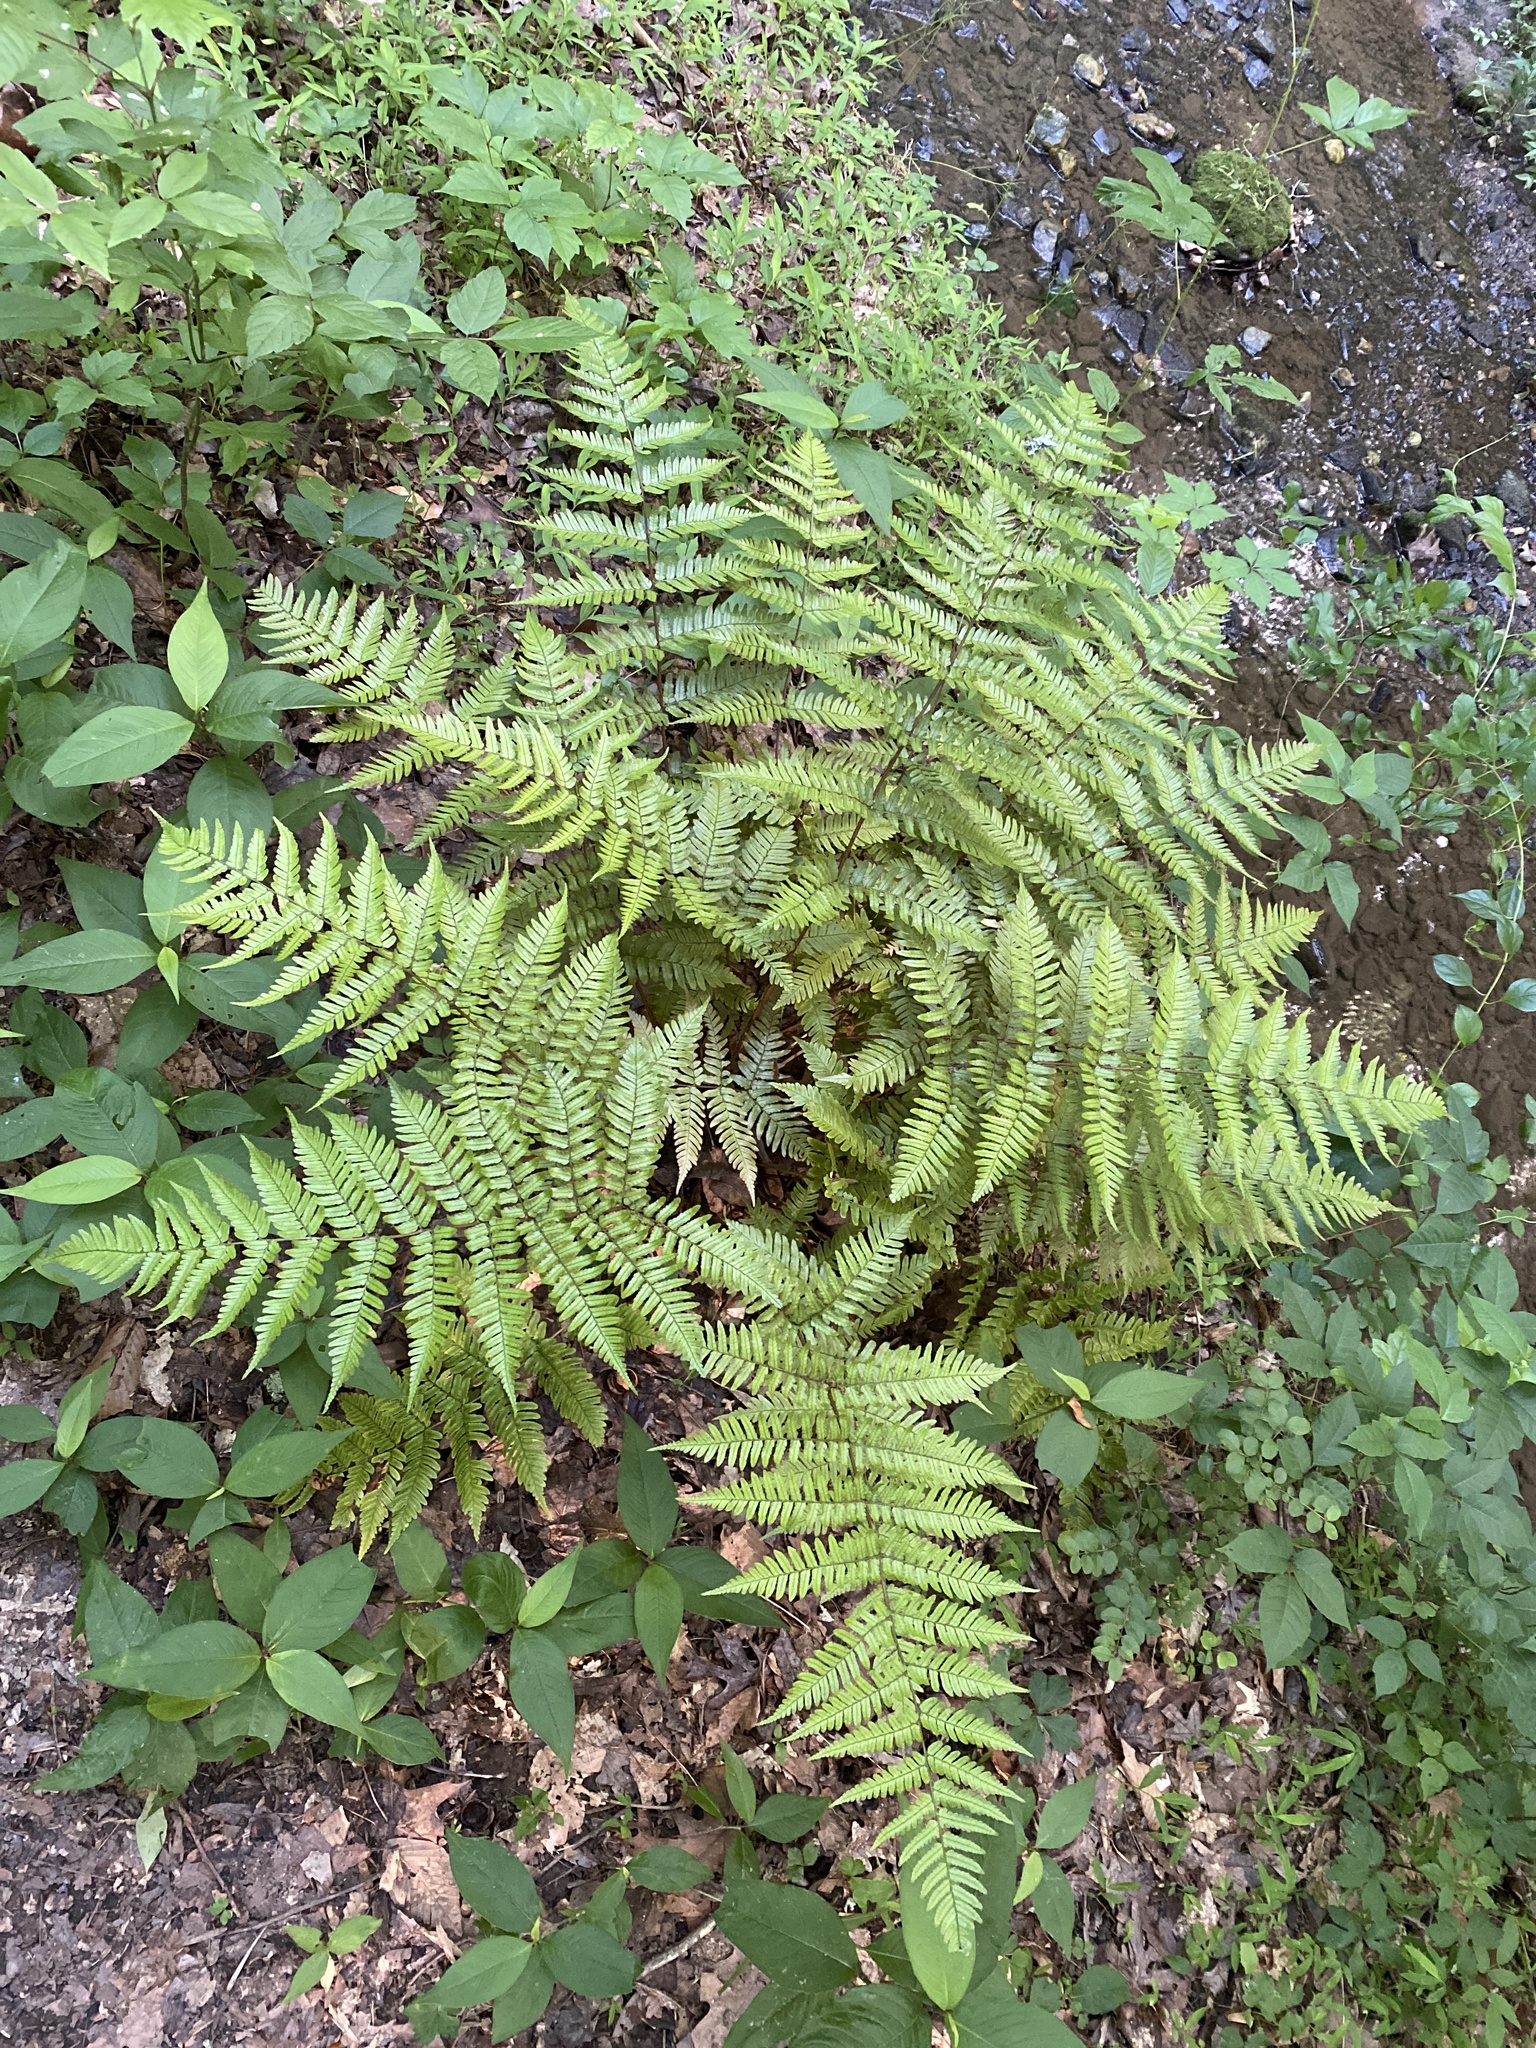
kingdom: Plantae
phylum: Tracheophyta
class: Polypodiopsida
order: Polypodiales
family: Dryopteridaceae
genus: Dryopteris
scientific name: Dryopteris erythrosora
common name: Autumn fern
